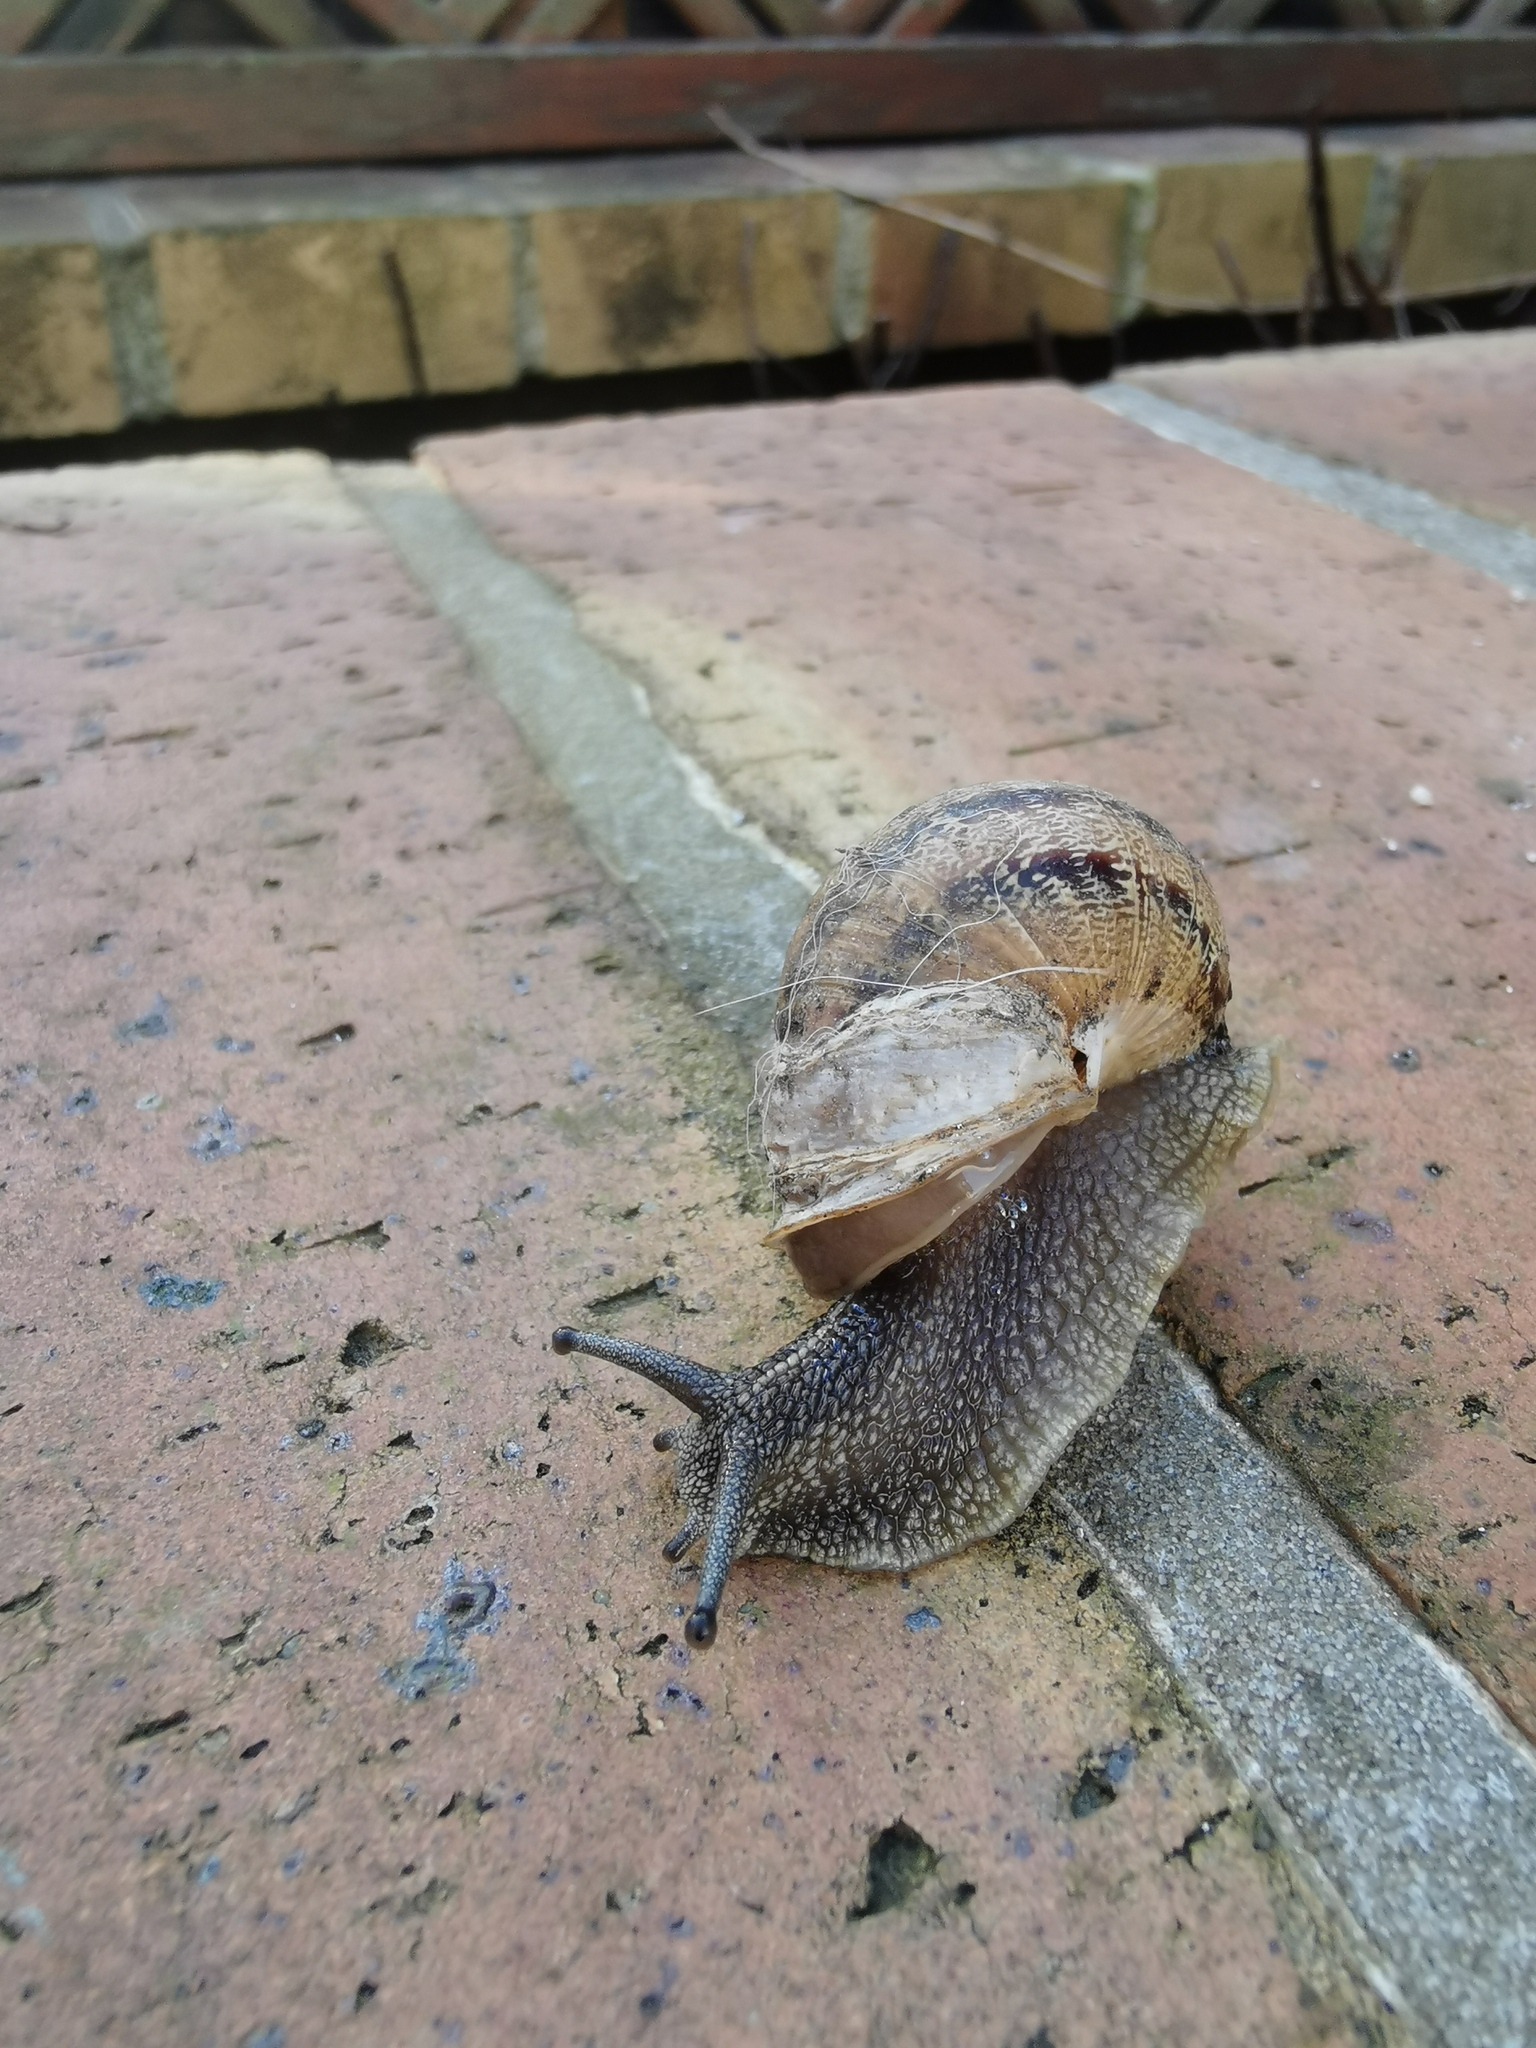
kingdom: Animalia
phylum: Mollusca
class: Gastropoda
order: Stylommatophora
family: Helicidae
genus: Cornu
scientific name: Cornu aspersum
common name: Brown garden snail
